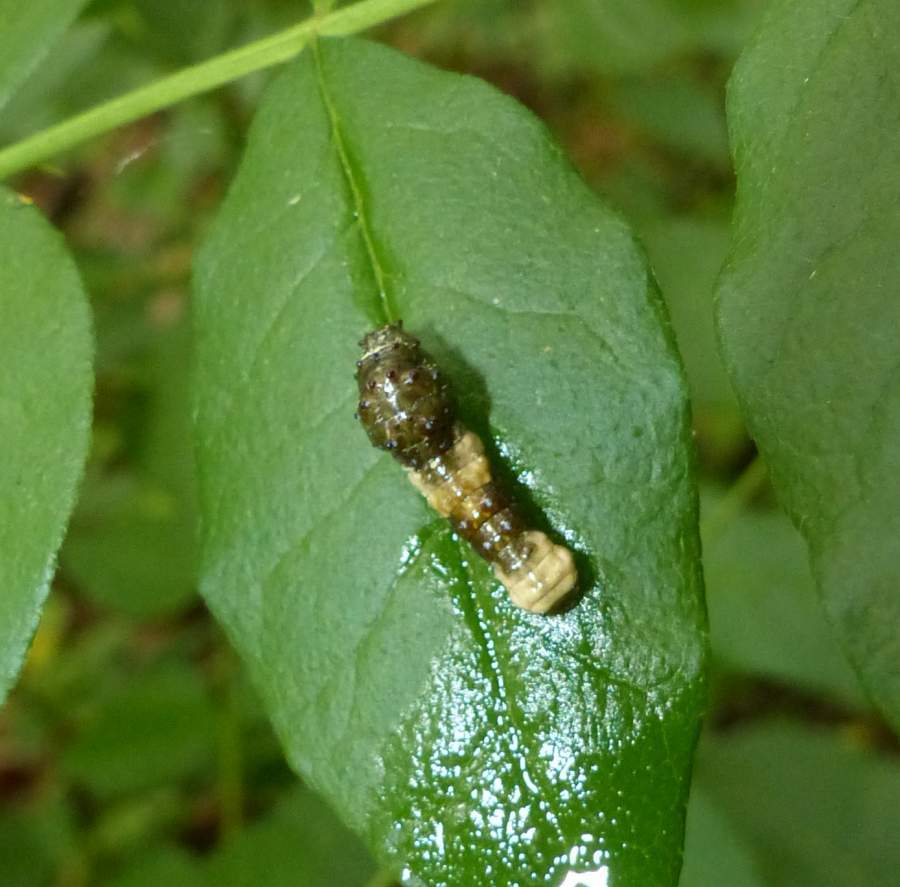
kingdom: Animalia
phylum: Arthropoda
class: Insecta
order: Lepidoptera
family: Papilionidae
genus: Papilio
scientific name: Papilio cresphontes
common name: Giant swallowtail
